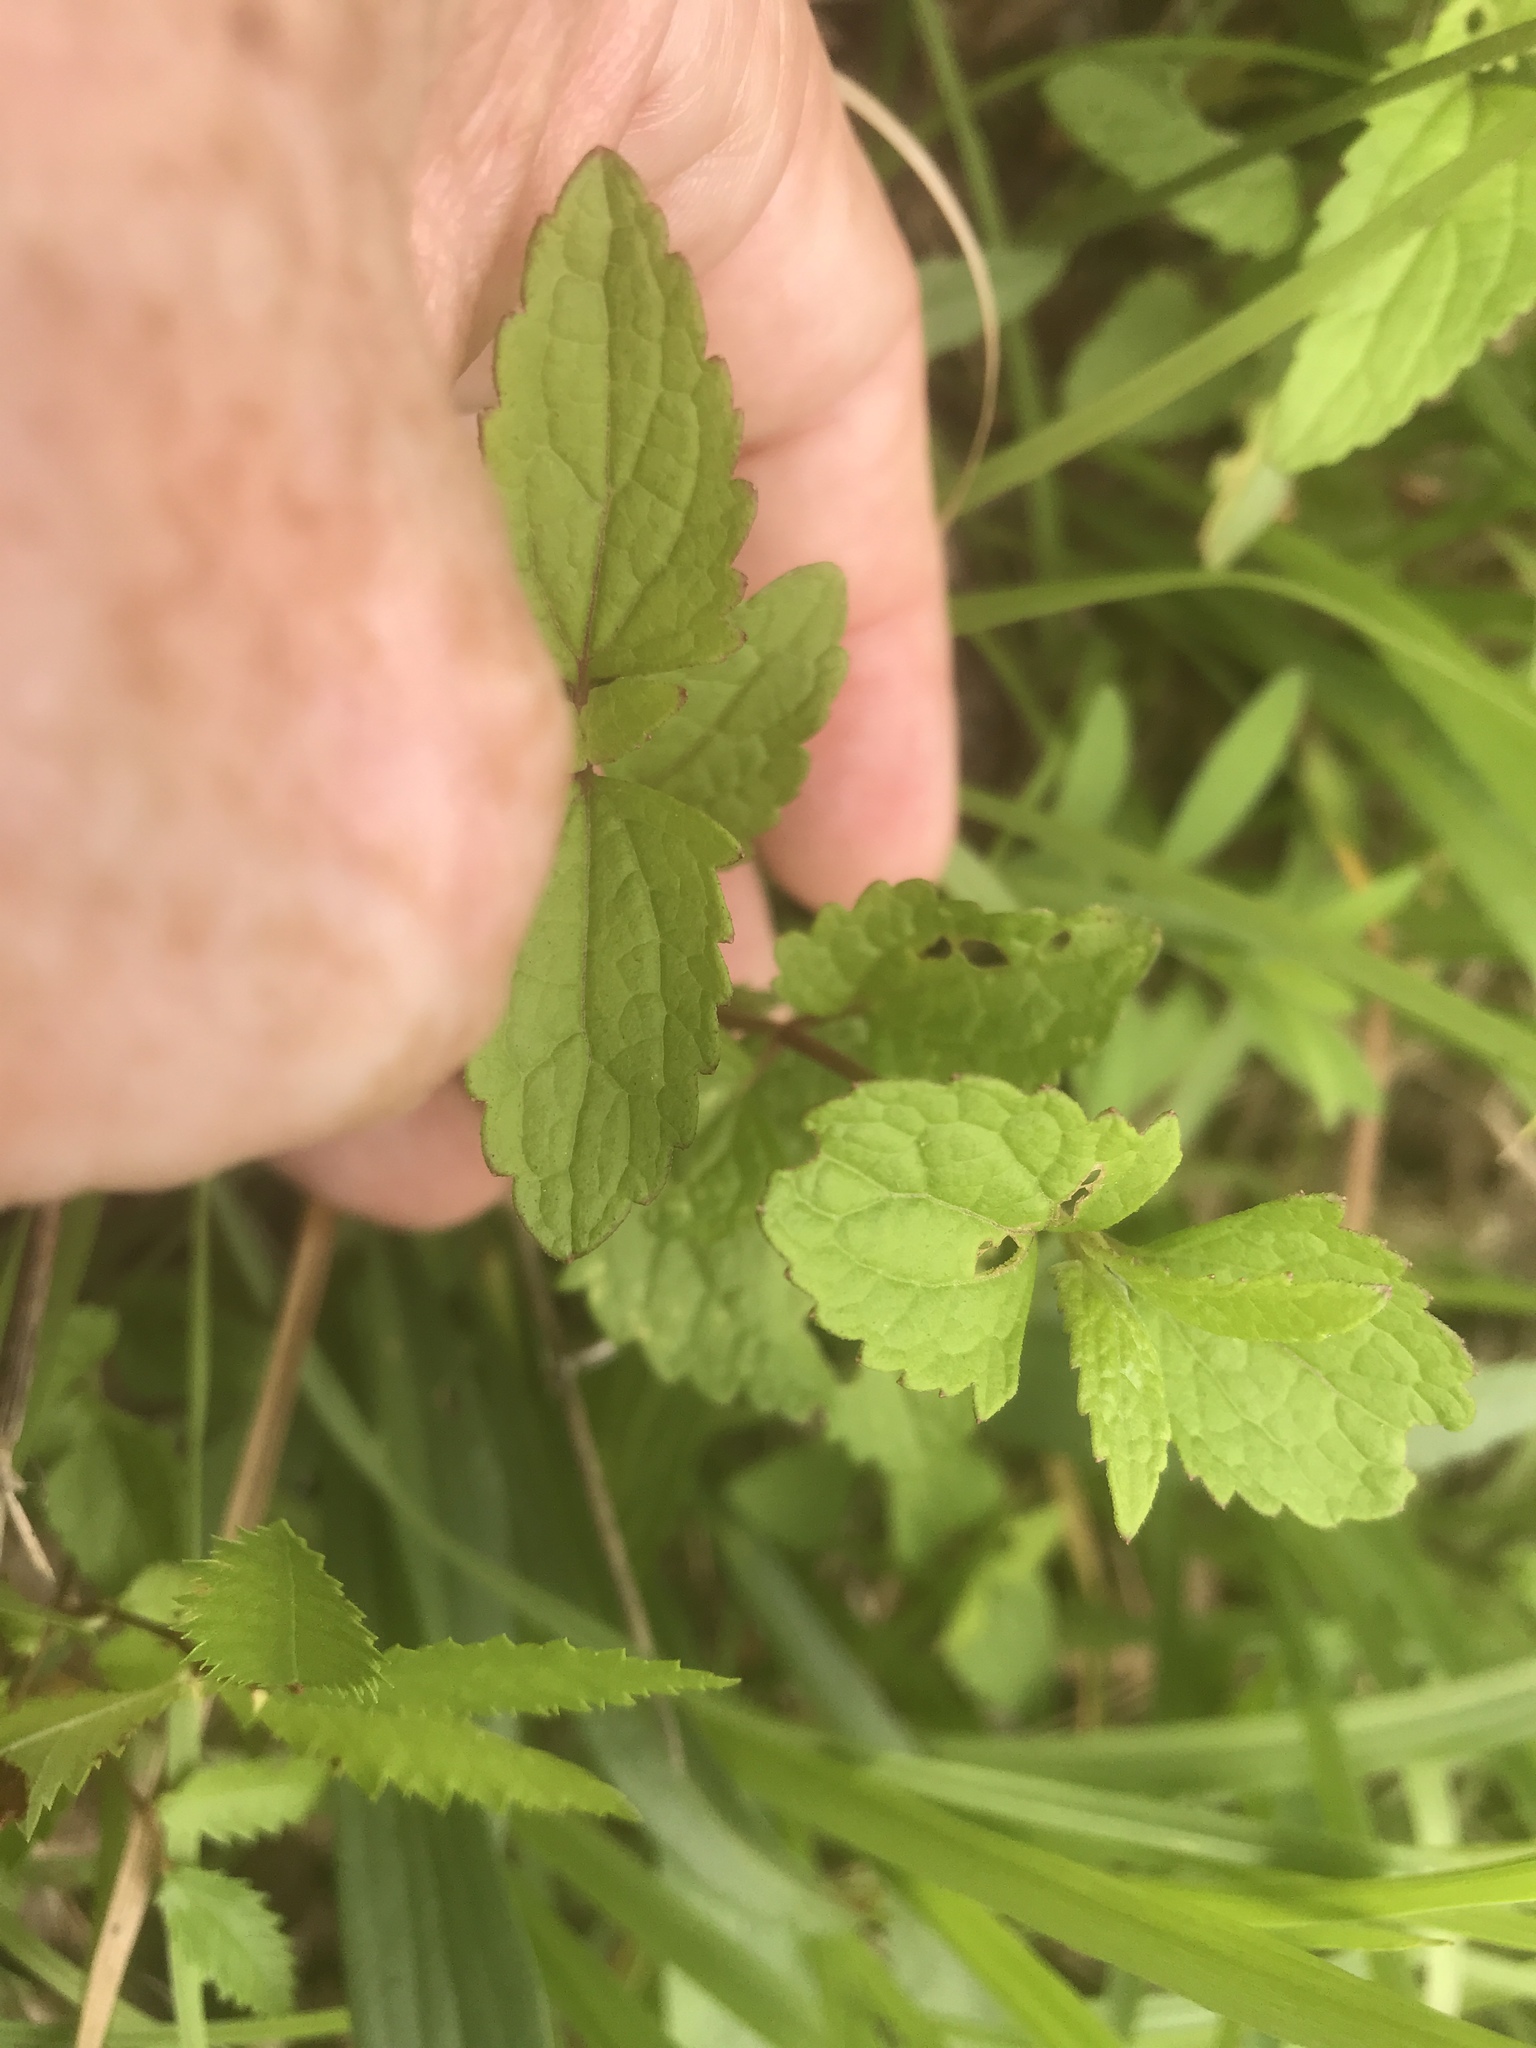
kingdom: Plantae
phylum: Tracheophyta
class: Magnoliopsida
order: Asterales
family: Asteraceae
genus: Conoclinium
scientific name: Conoclinium coelestinum
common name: Blue mistflower
